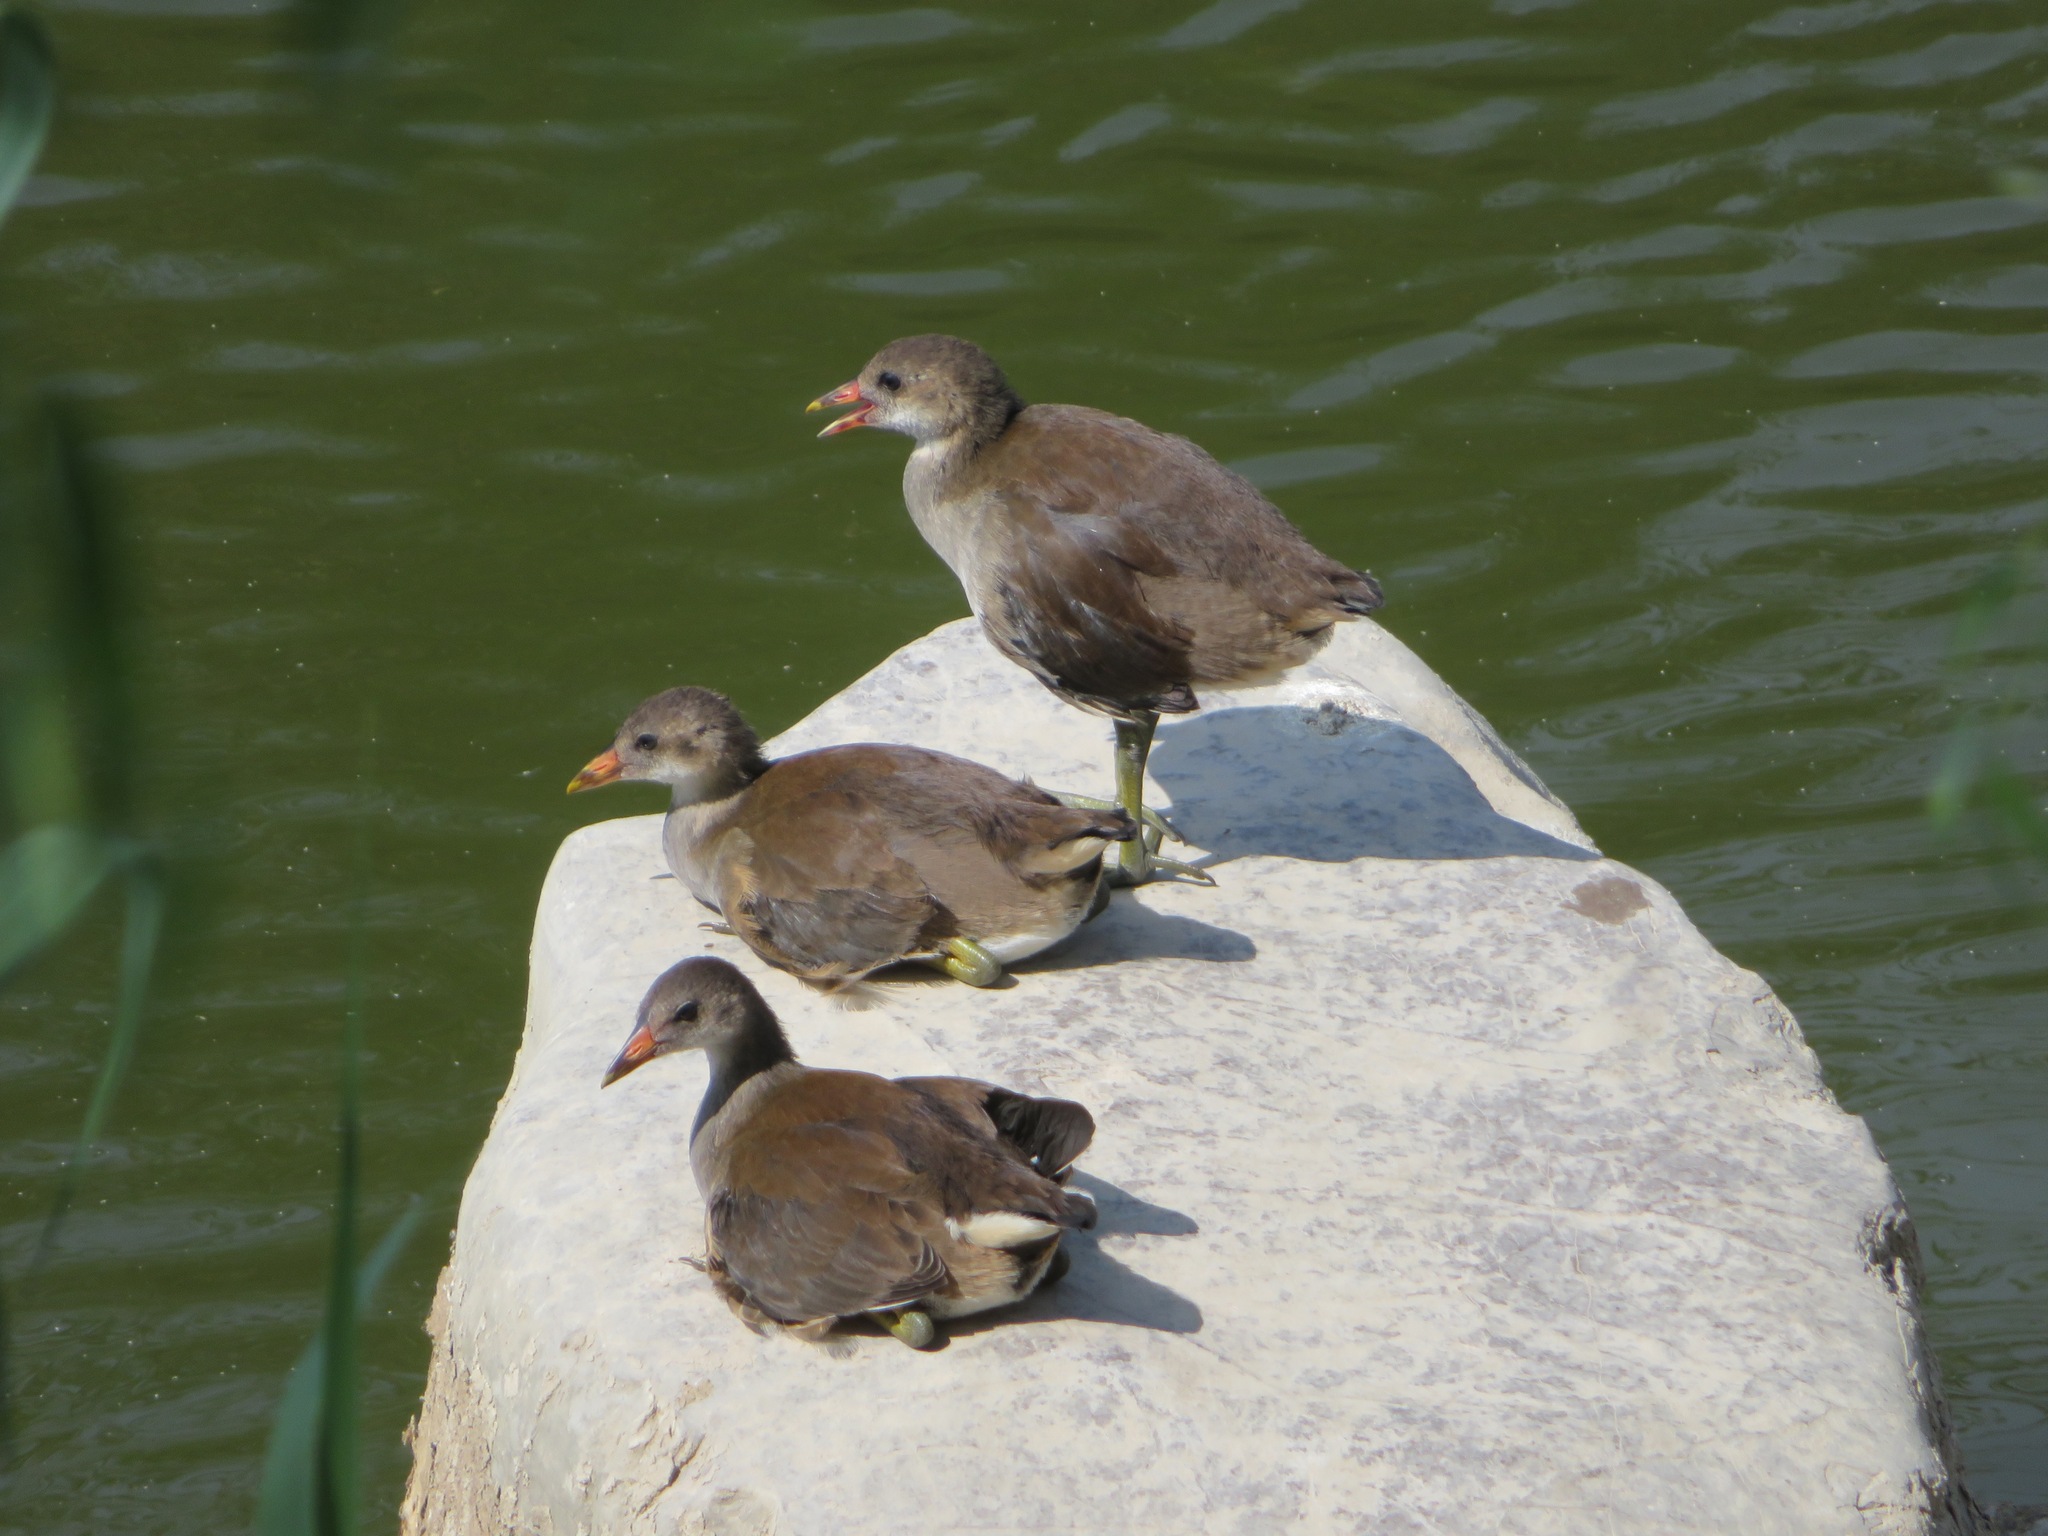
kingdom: Animalia
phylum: Chordata
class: Aves
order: Gruiformes
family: Rallidae
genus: Gallinula
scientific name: Gallinula chloropus
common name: Common moorhen
